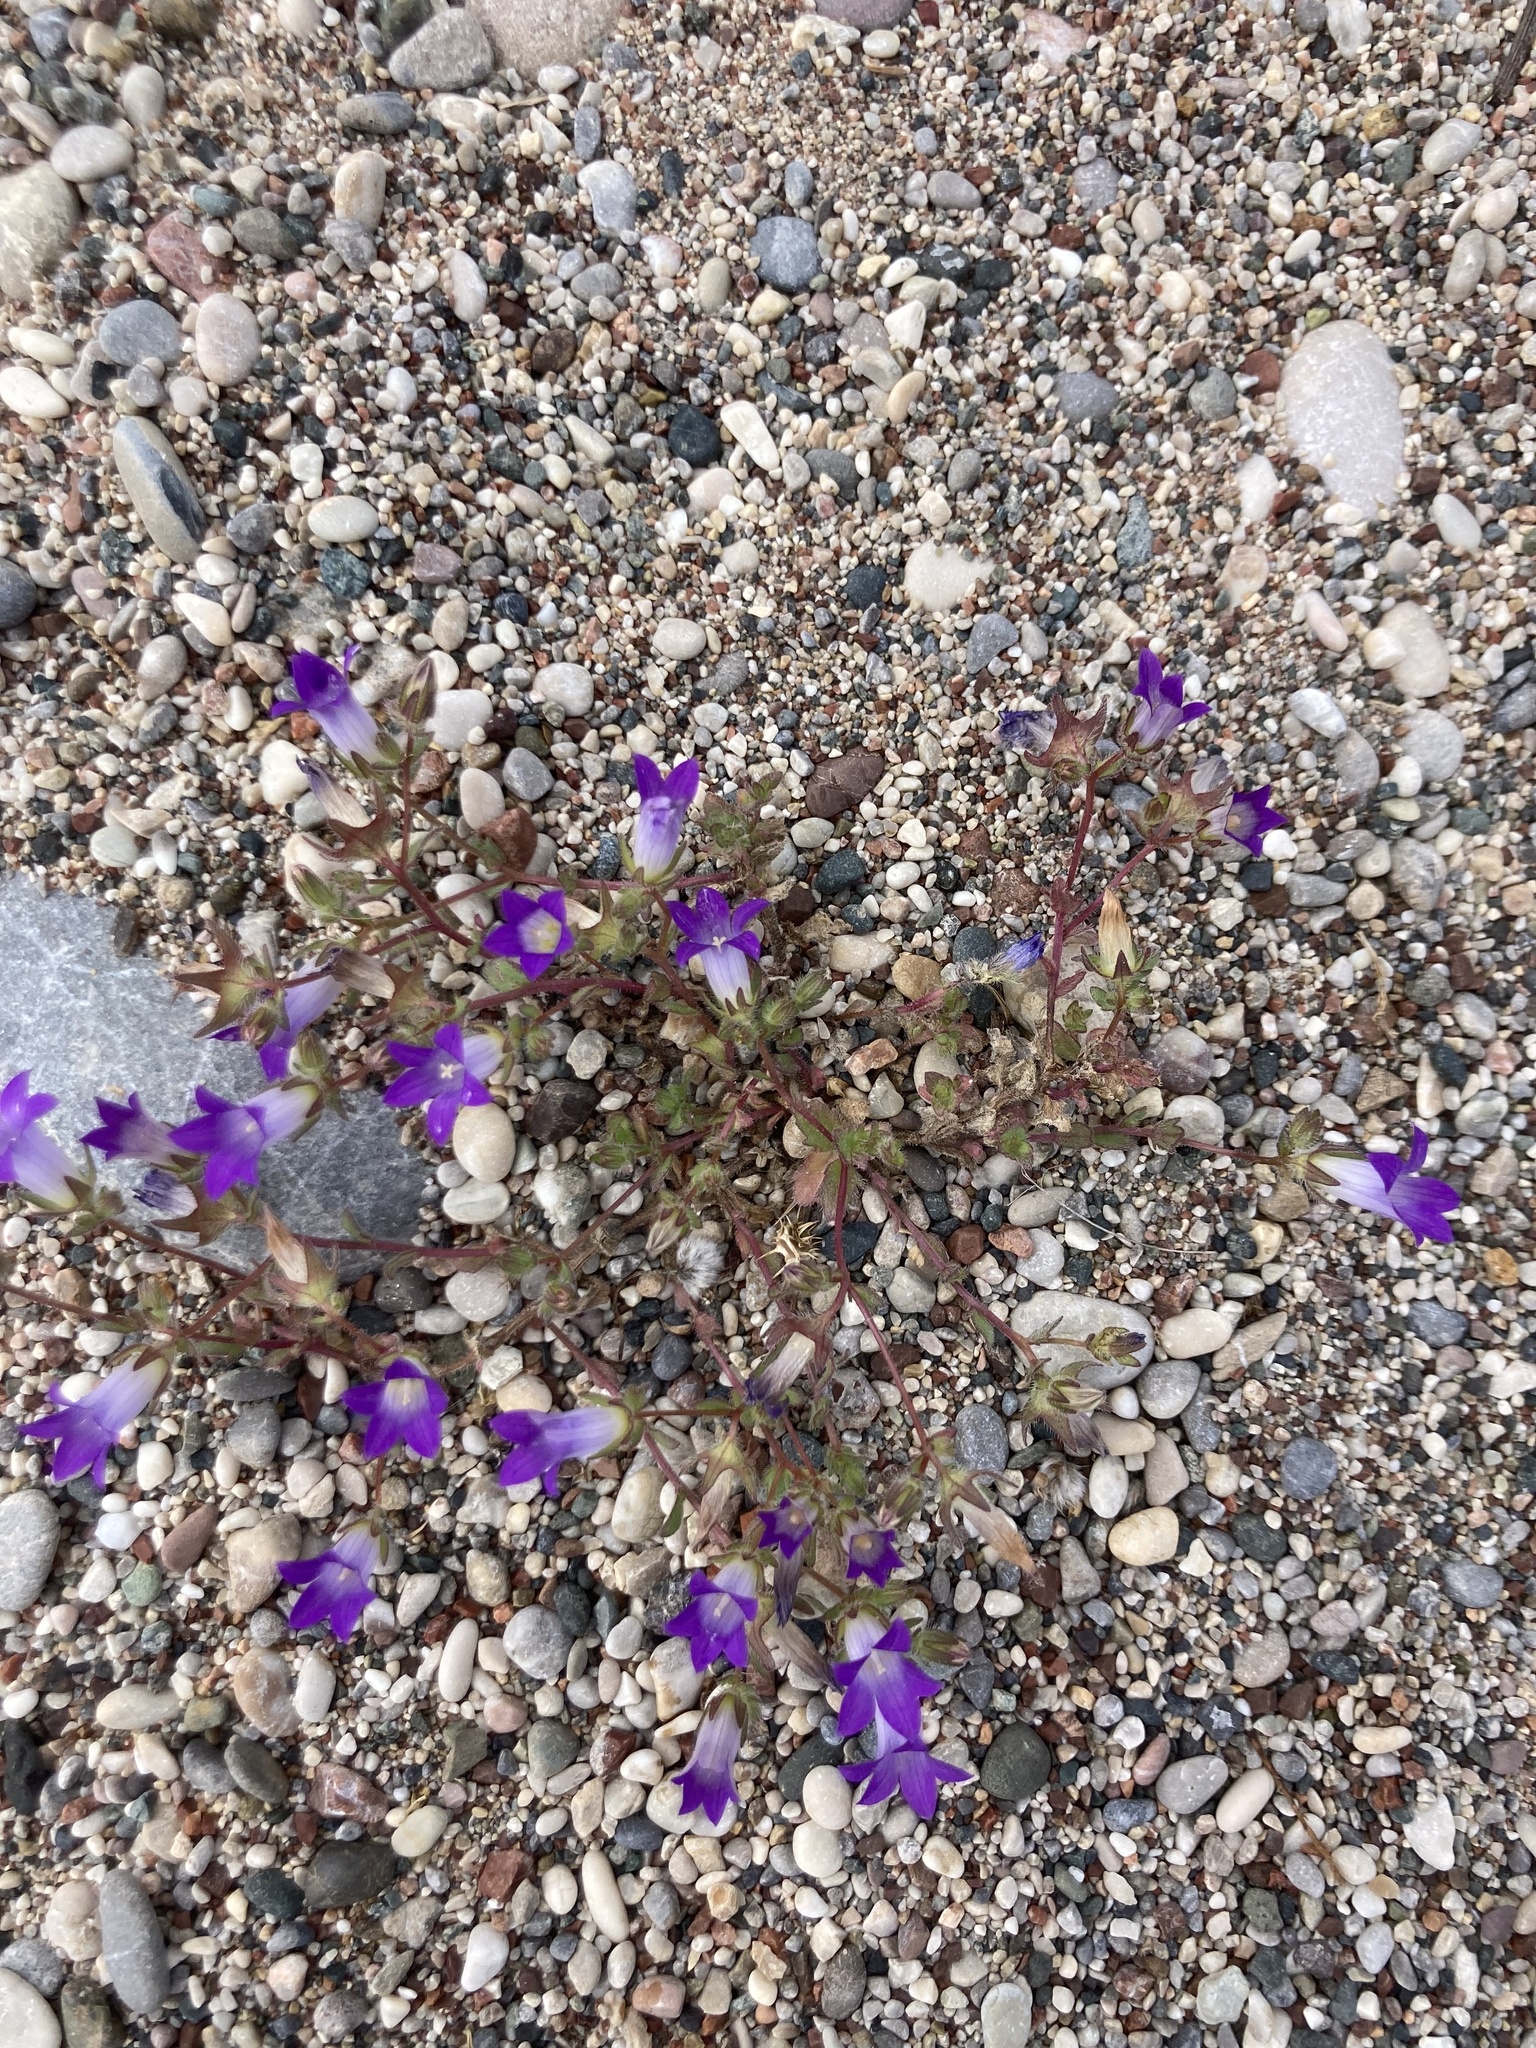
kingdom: Plantae
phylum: Tracheophyta
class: Magnoliopsida
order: Asterales
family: Campanulaceae
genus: Campanula
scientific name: Campanula rhodensis
